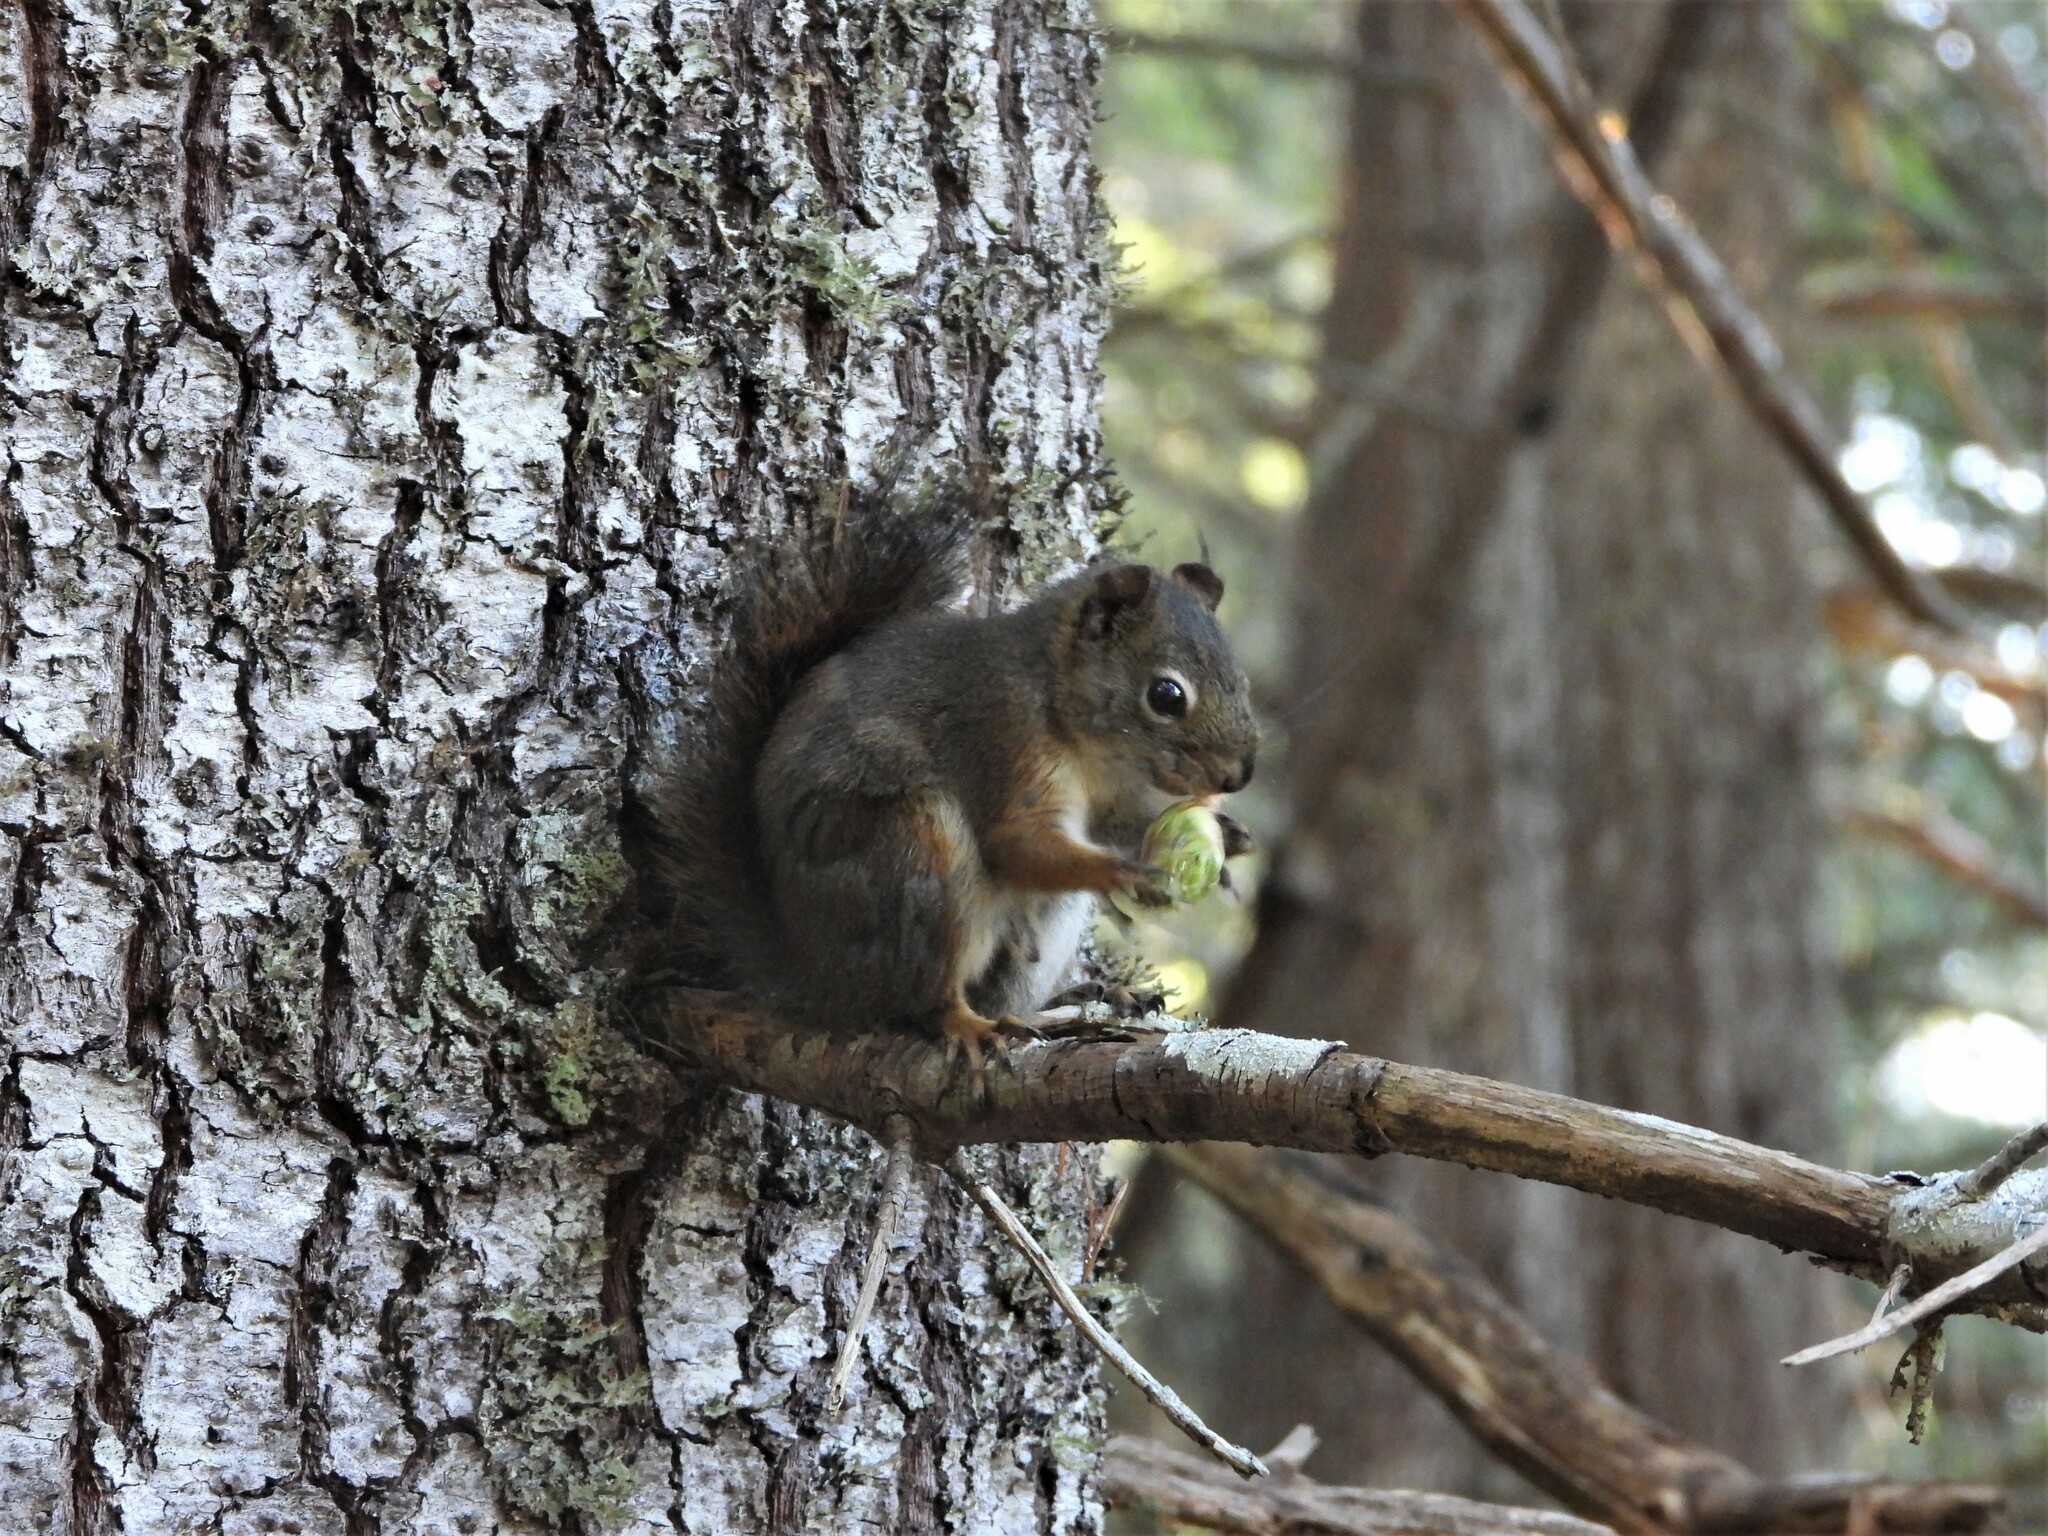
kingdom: Animalia
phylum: Chordata
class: Mammalia
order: Rodentia
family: Sciuridae
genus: Tamiasciurus
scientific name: Tamiasciurus hudsonicus
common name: Red squirrel
